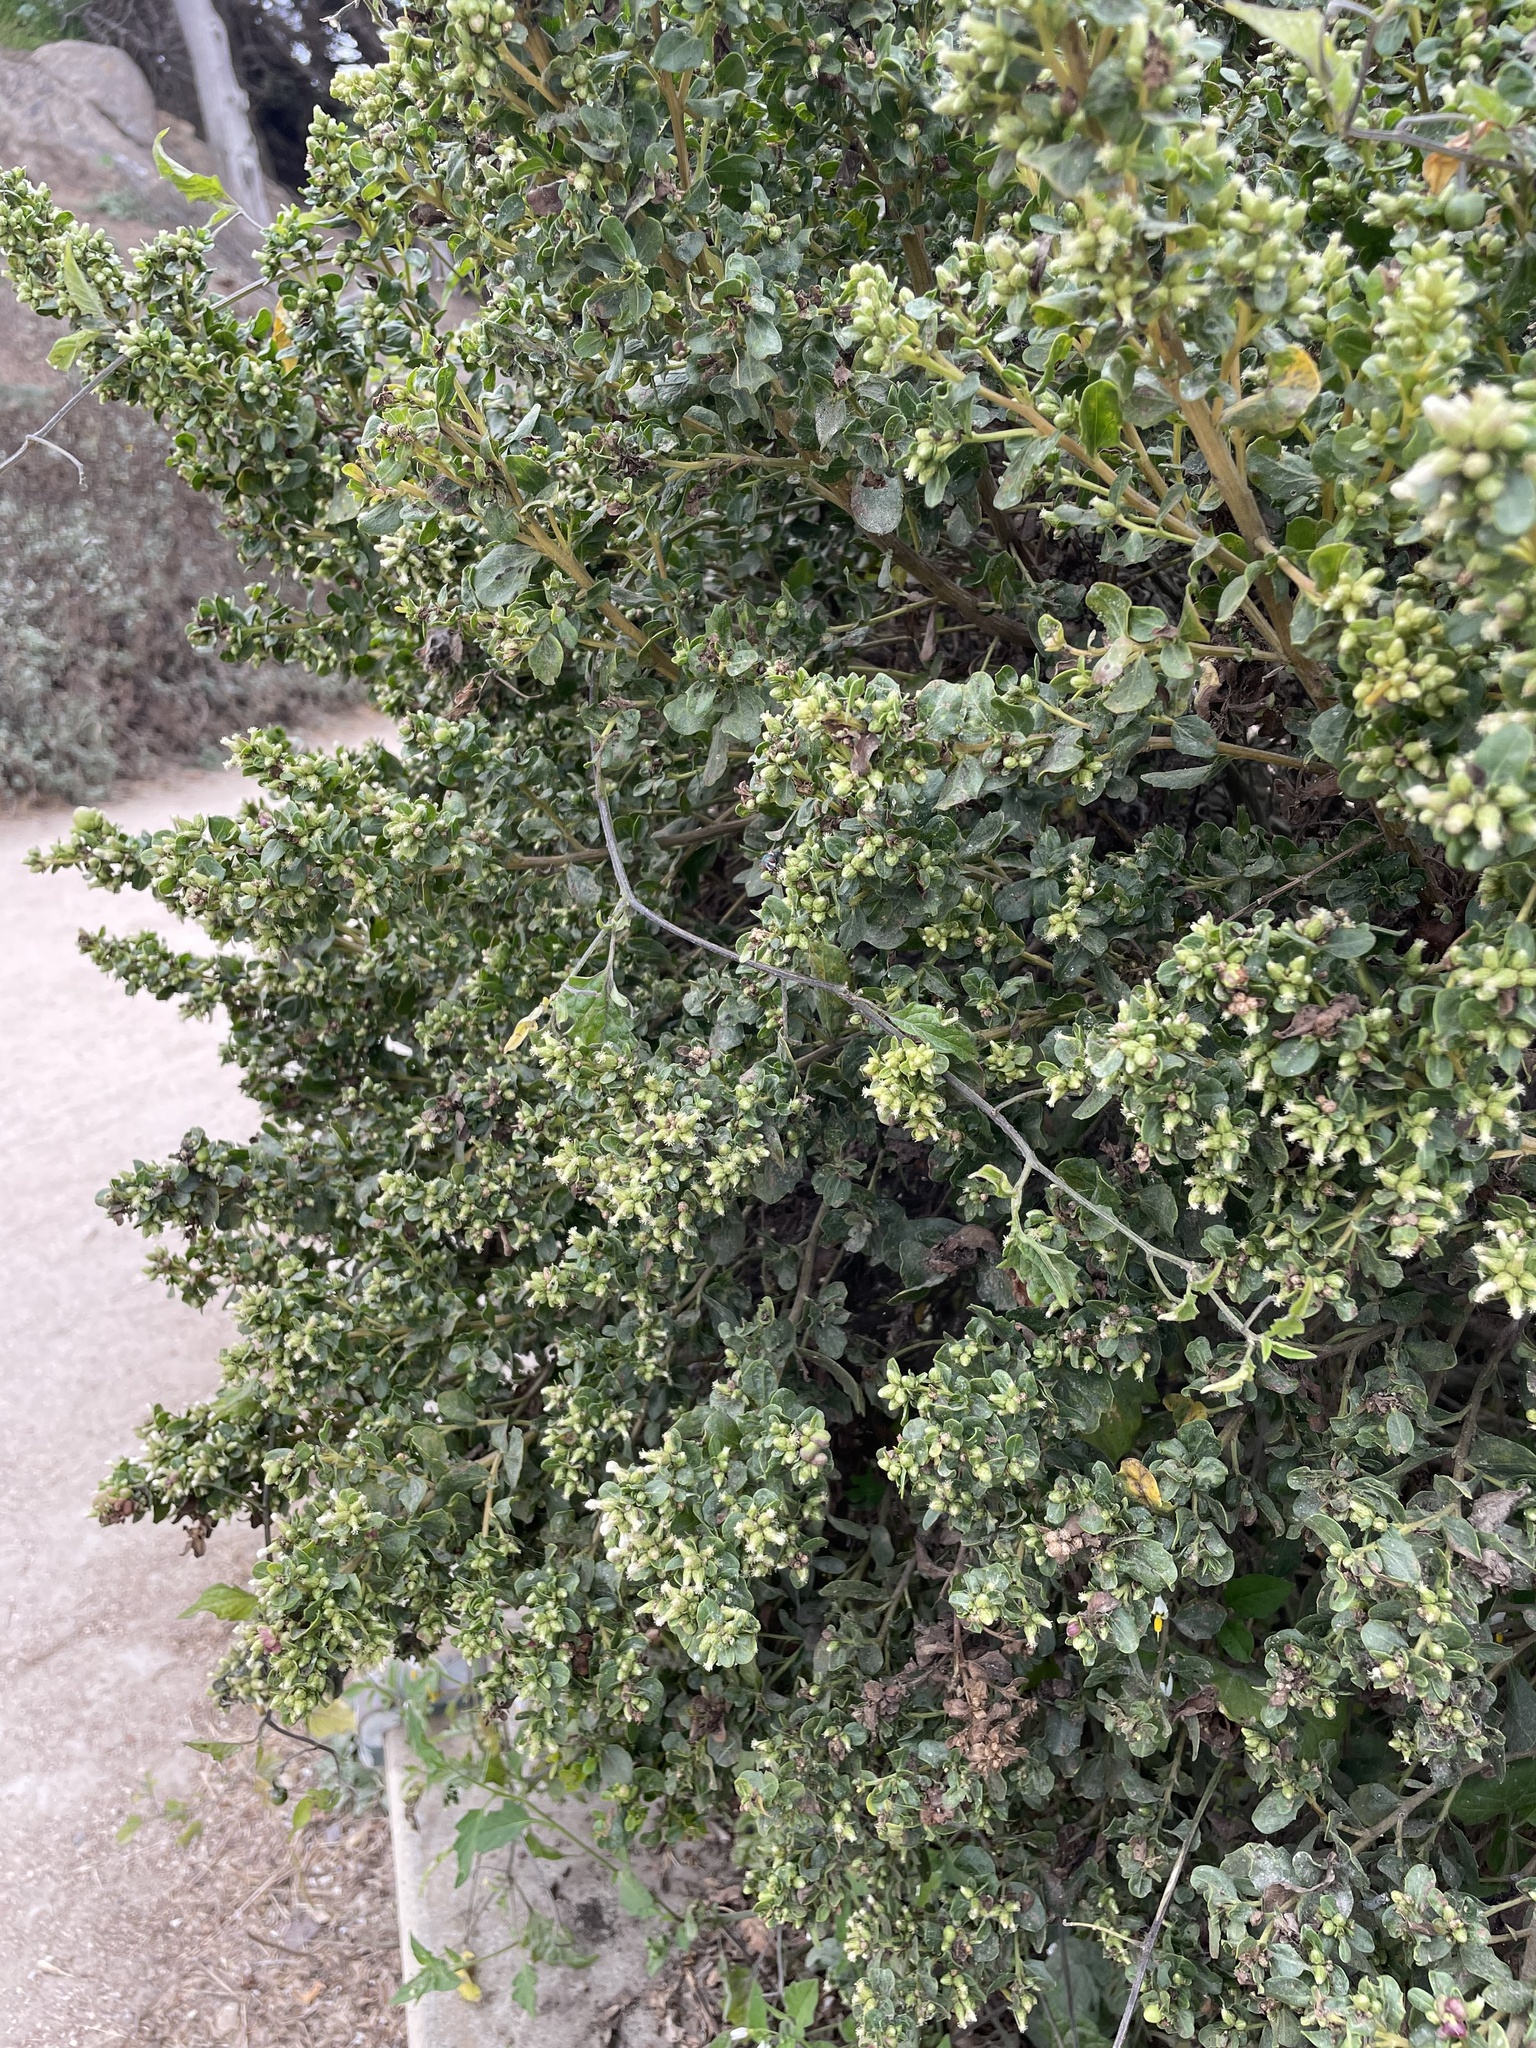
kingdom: Plantae
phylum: Tracheophyta
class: Magnoliopsida
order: Asterales
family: Asteraceae
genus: Baccharis
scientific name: Baccharis pilularis
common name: Coyotebrush
